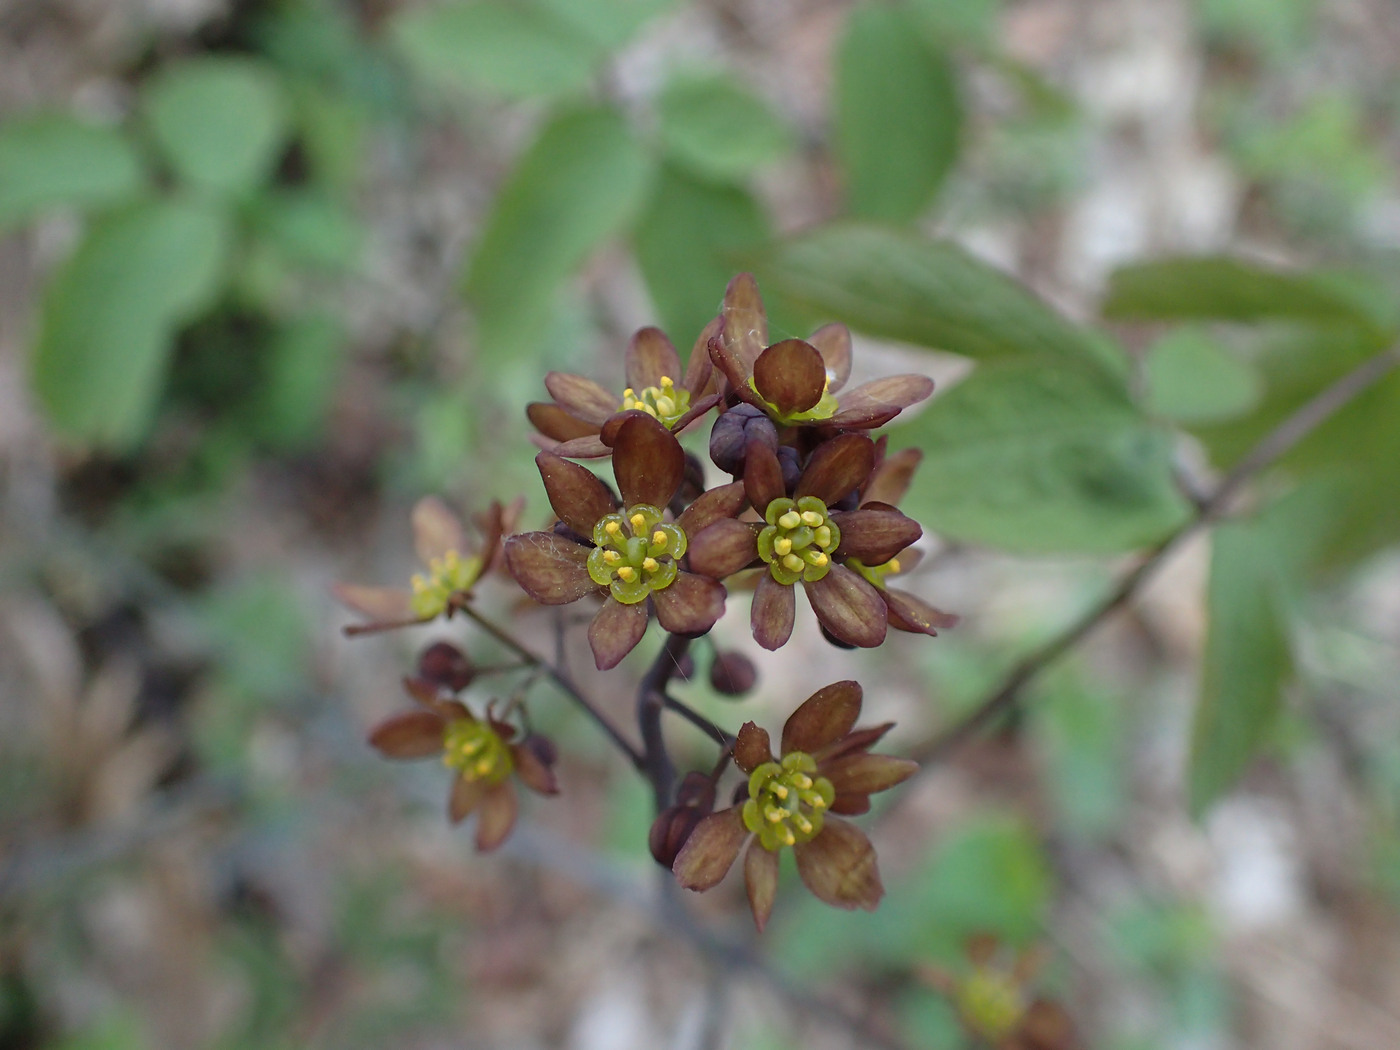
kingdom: Plantae
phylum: Tracheophyta
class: Magnoliopsida
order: Ranunculales
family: Berberidaceae
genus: Caulophyllum
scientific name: Caulophyllum thalictroides
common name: Blue cohosh
